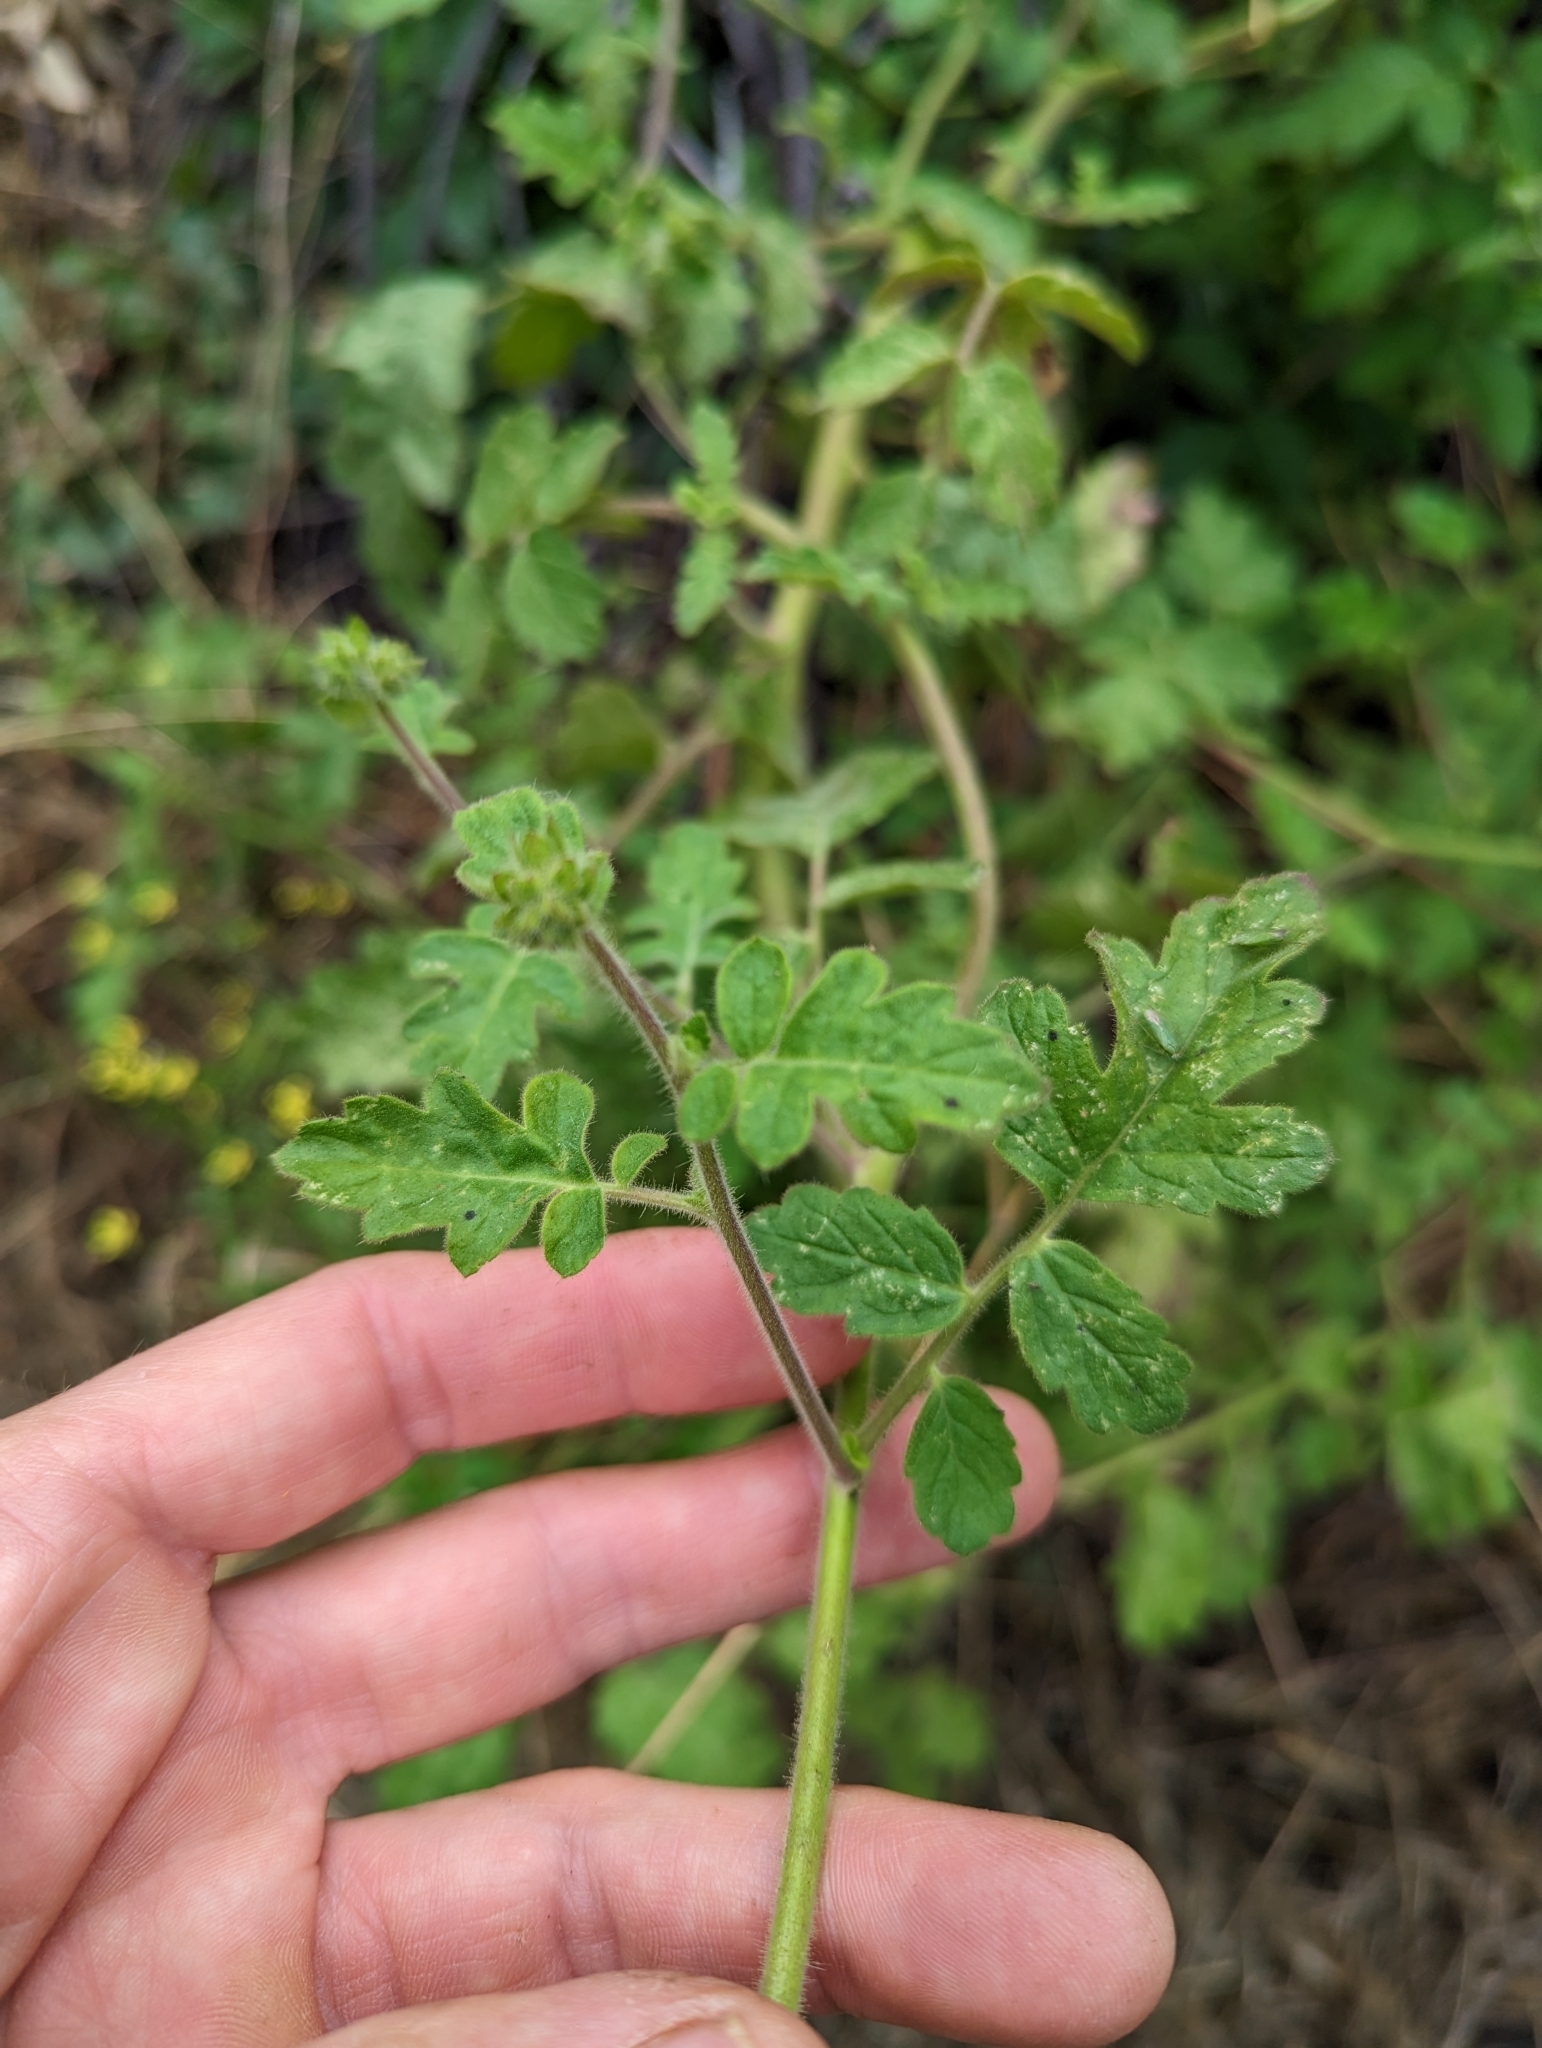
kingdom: Plantae
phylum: Tracheophyta
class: Magnoliopsida
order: Boraginales
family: Hydrophyllaceae
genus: Phacelia
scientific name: Phacelia ramosissima
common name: Branching phacelia
